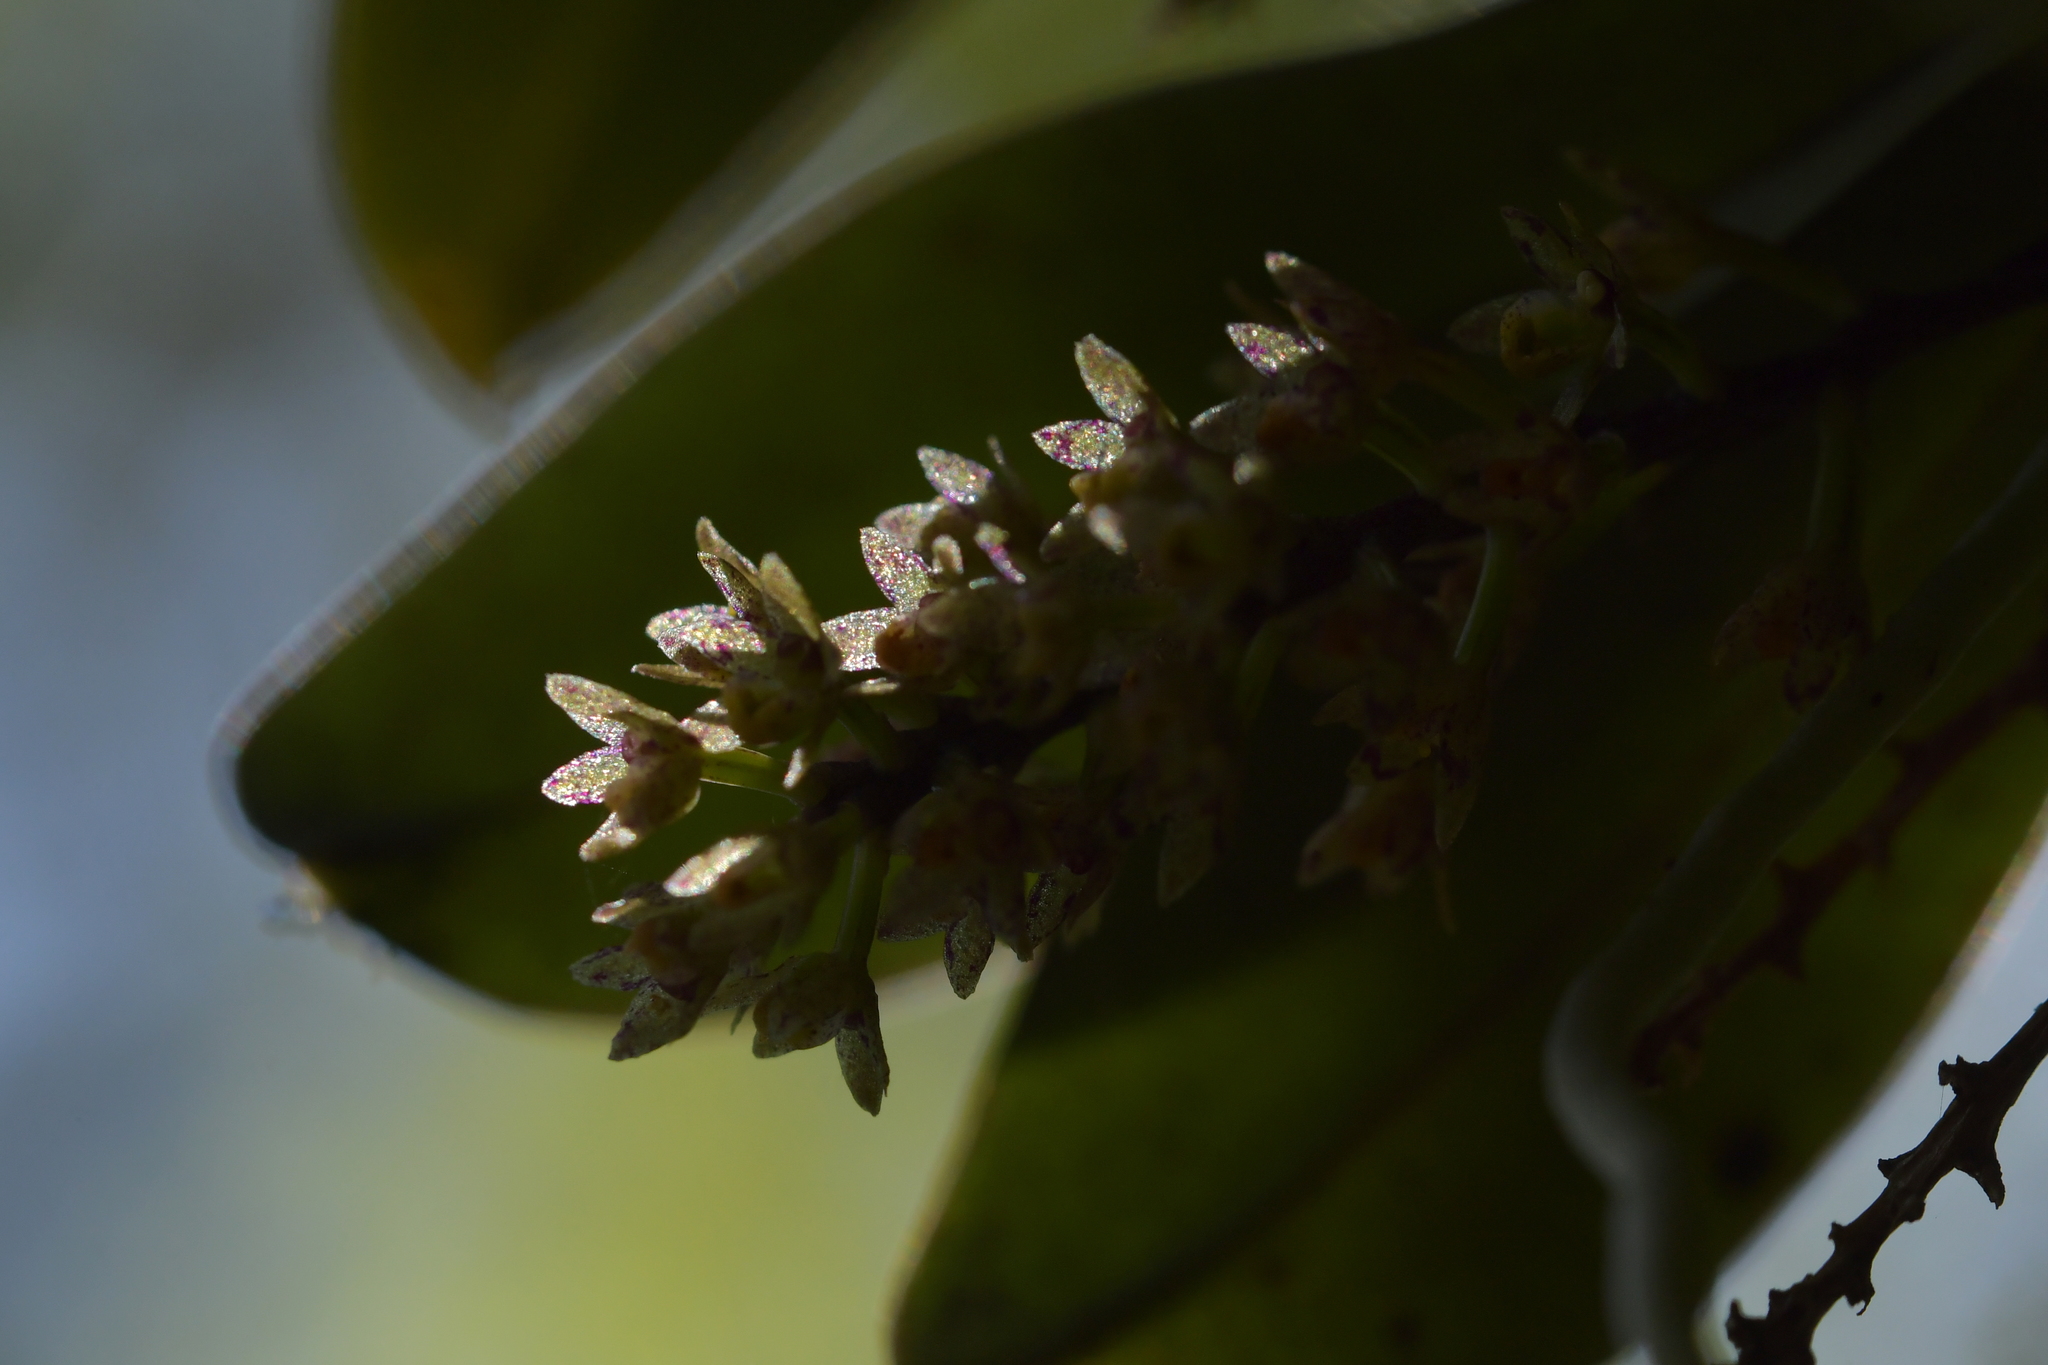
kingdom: Plantae
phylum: Tracheophyta
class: Liliopsida
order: Asparagales
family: Orchidaceae
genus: Drymoanthus
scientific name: Drymoanthus adversus
